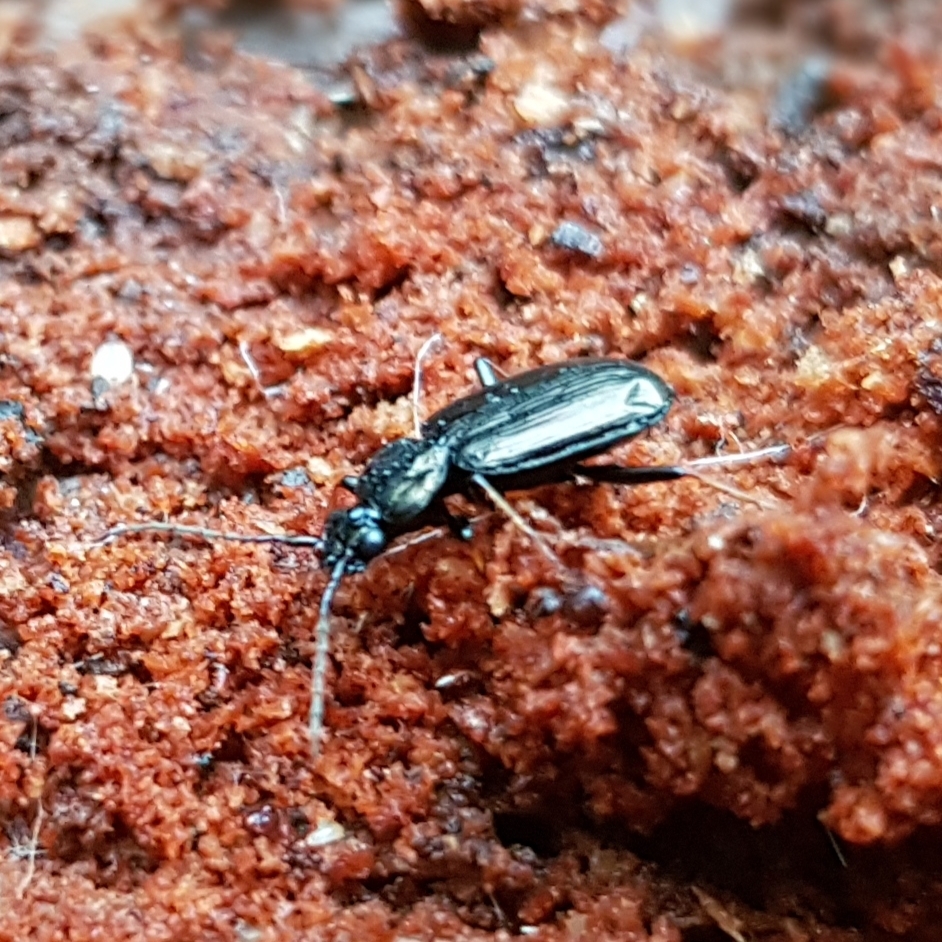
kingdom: Animalia
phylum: Arthropoda
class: Insecta
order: Coleoptera
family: Carabidae
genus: Loricera
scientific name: Loricera pilicornis
